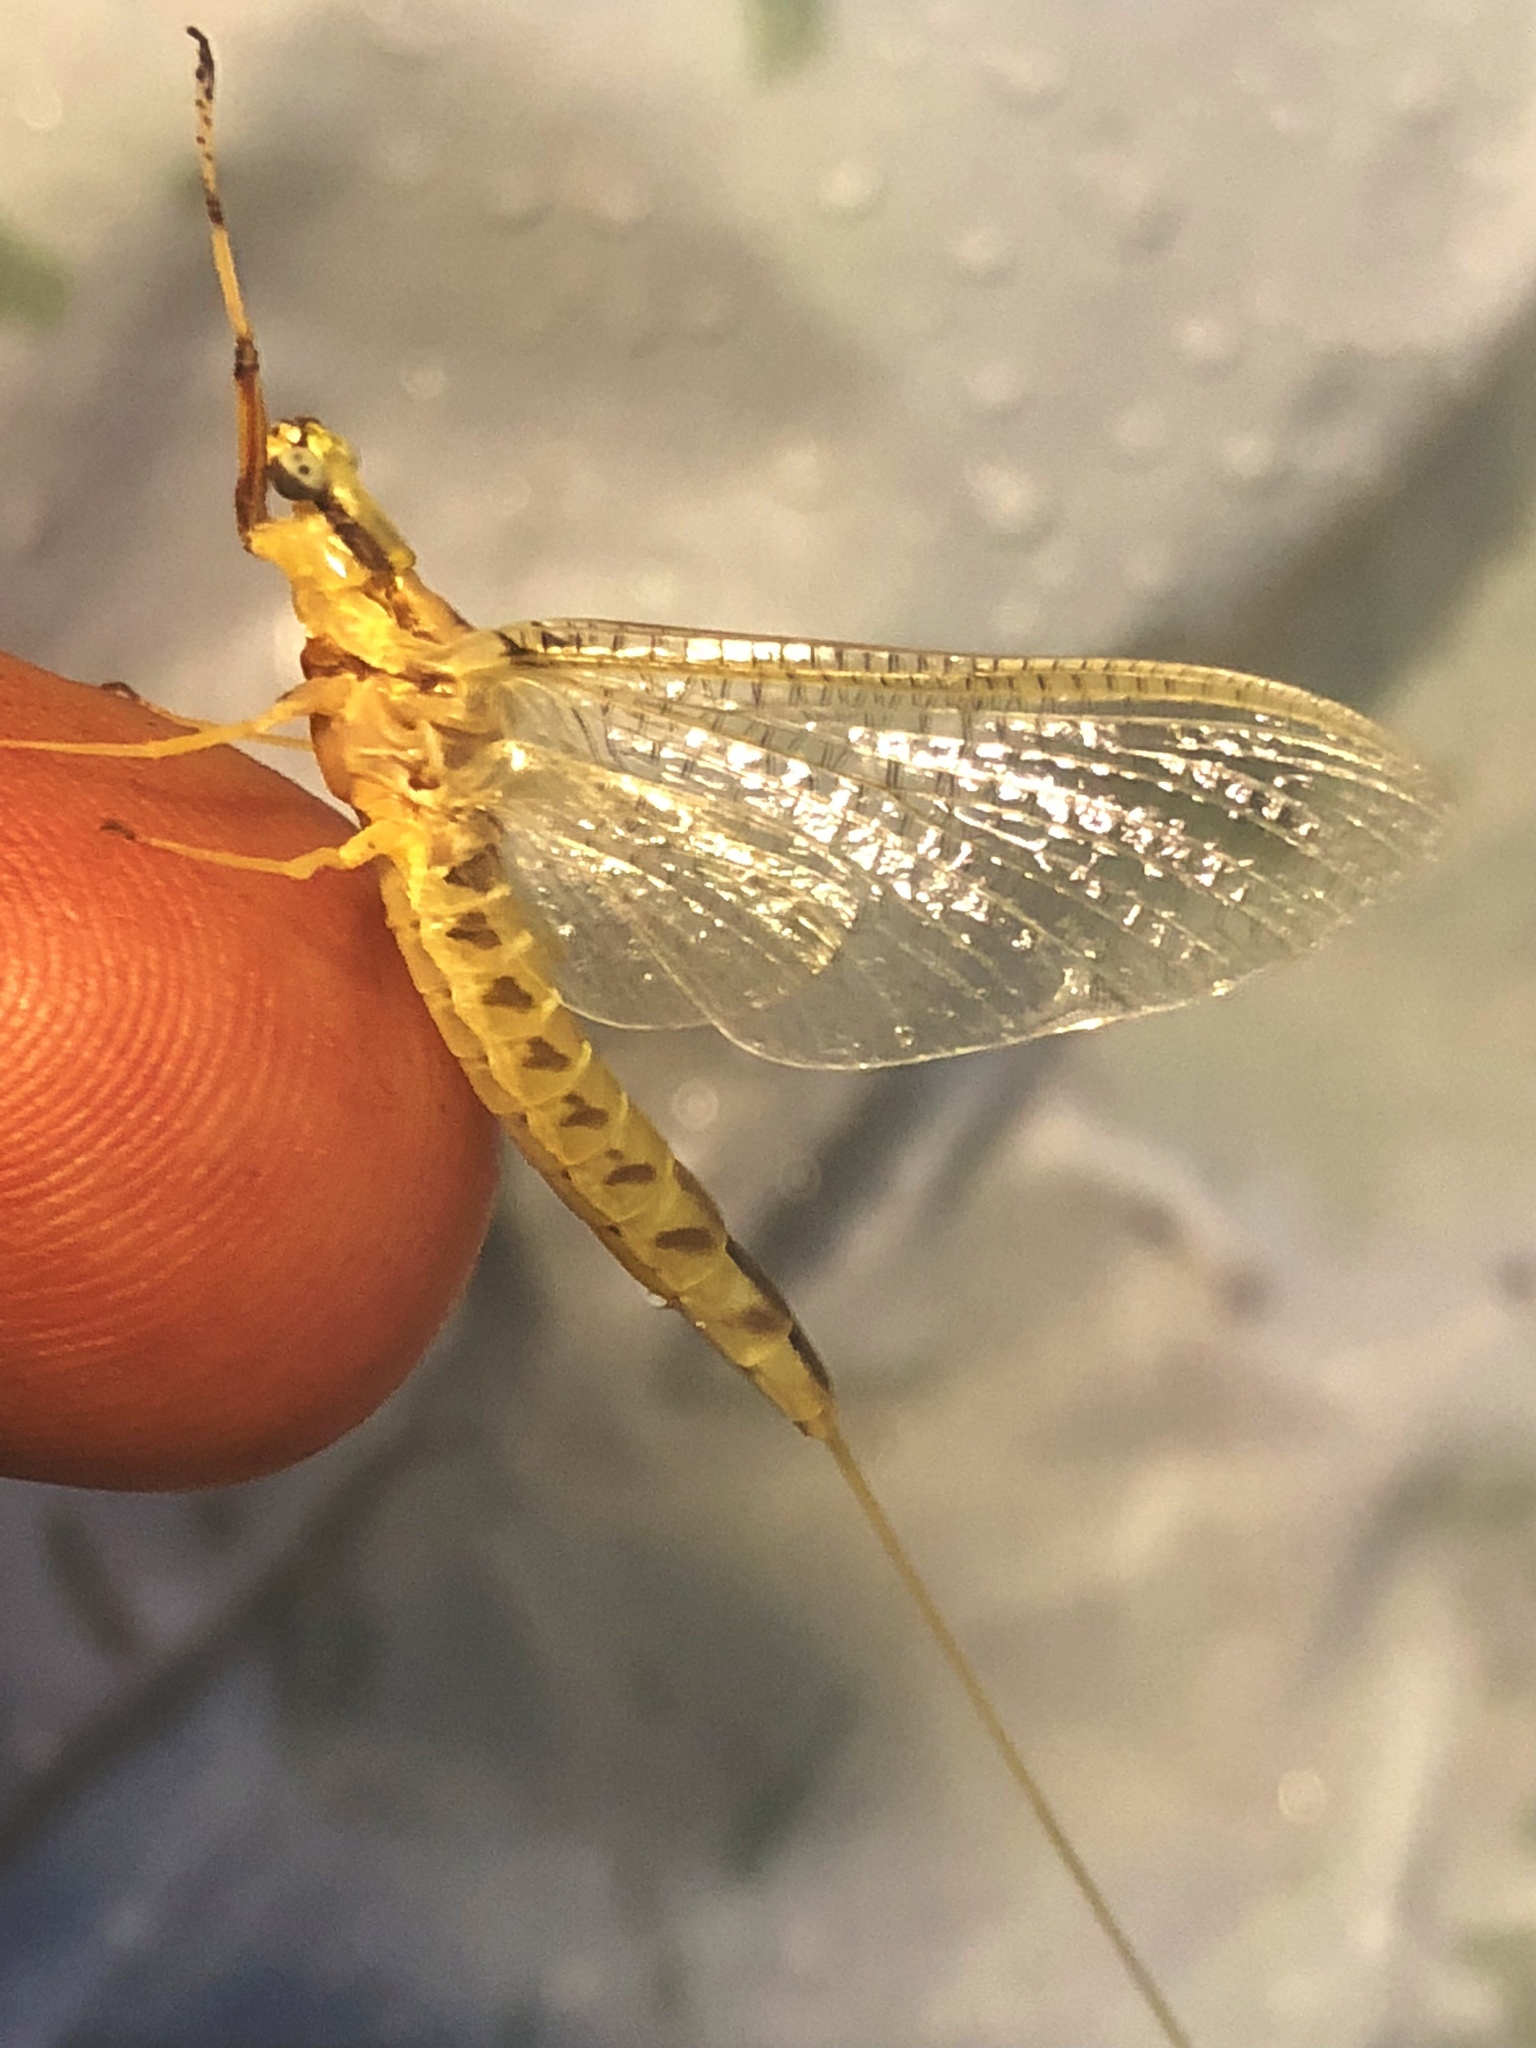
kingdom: Animalia
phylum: Arthropoda
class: Insecta
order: Ephemeroptera
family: Ephemeridae
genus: Hexagenia
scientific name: Hexagenia atrocaudata
